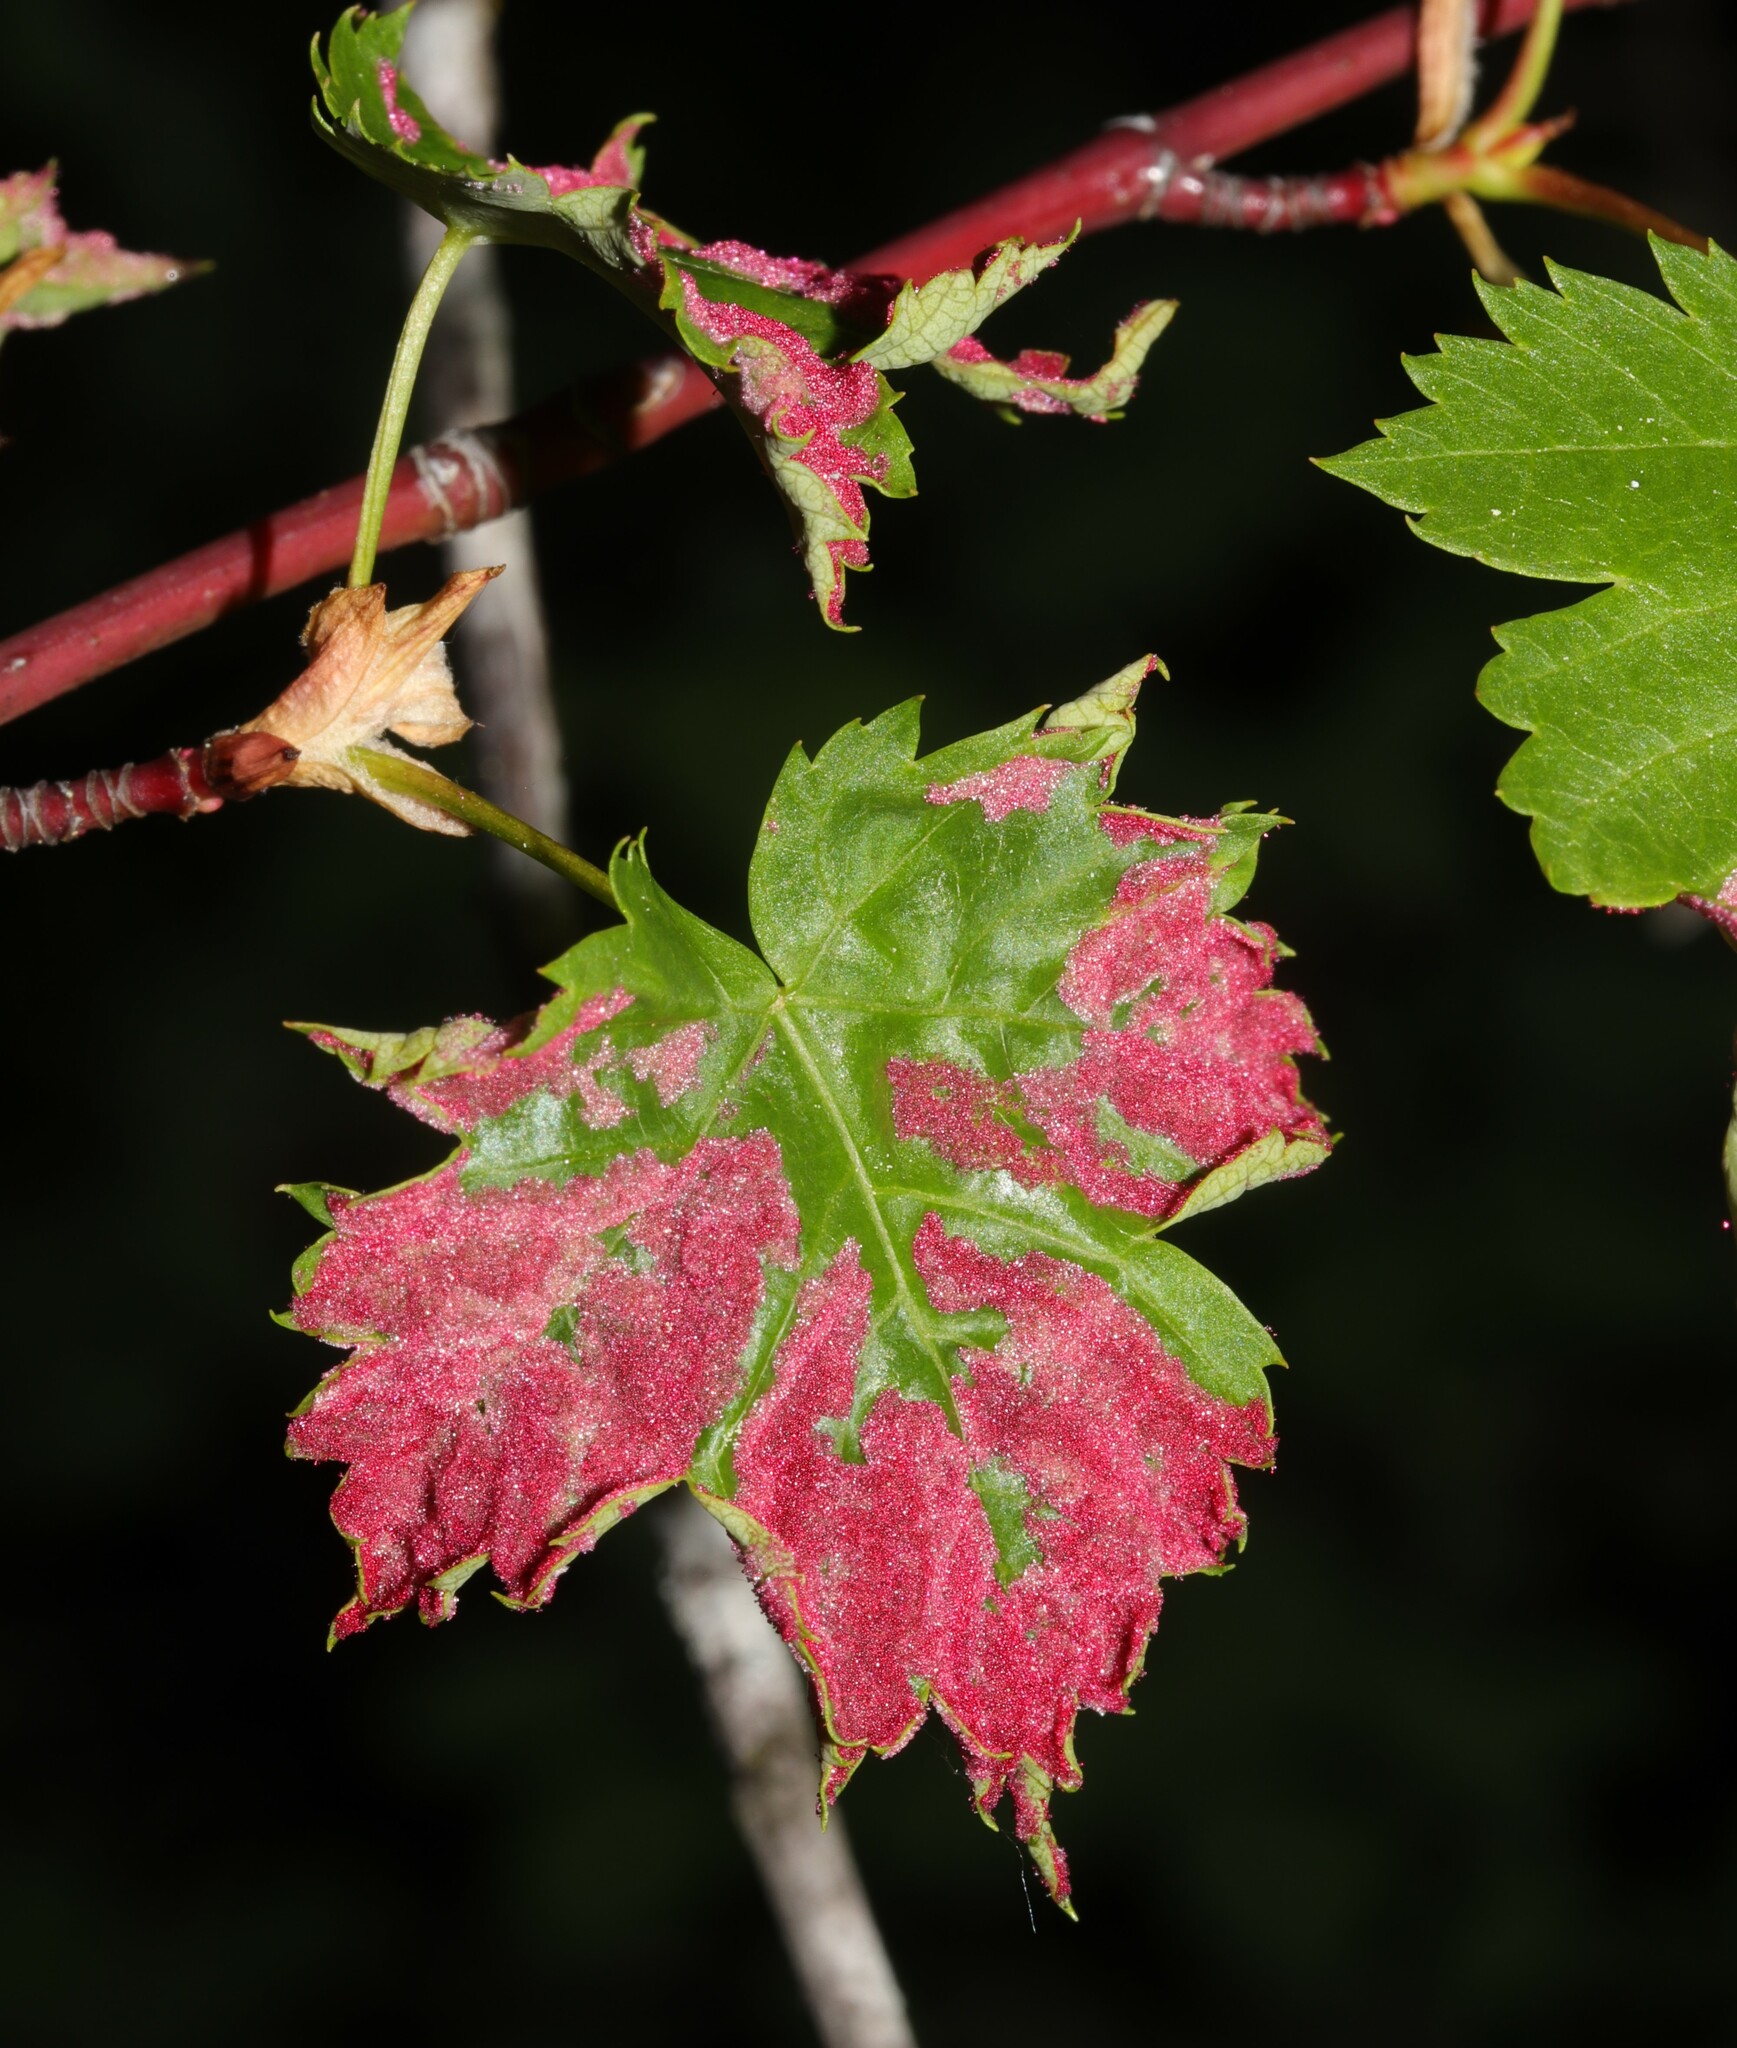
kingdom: Animalia
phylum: Arthropoda
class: Arachnida
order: Trombidiformes
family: Eriophyidae
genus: Aceria
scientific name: Aceria
